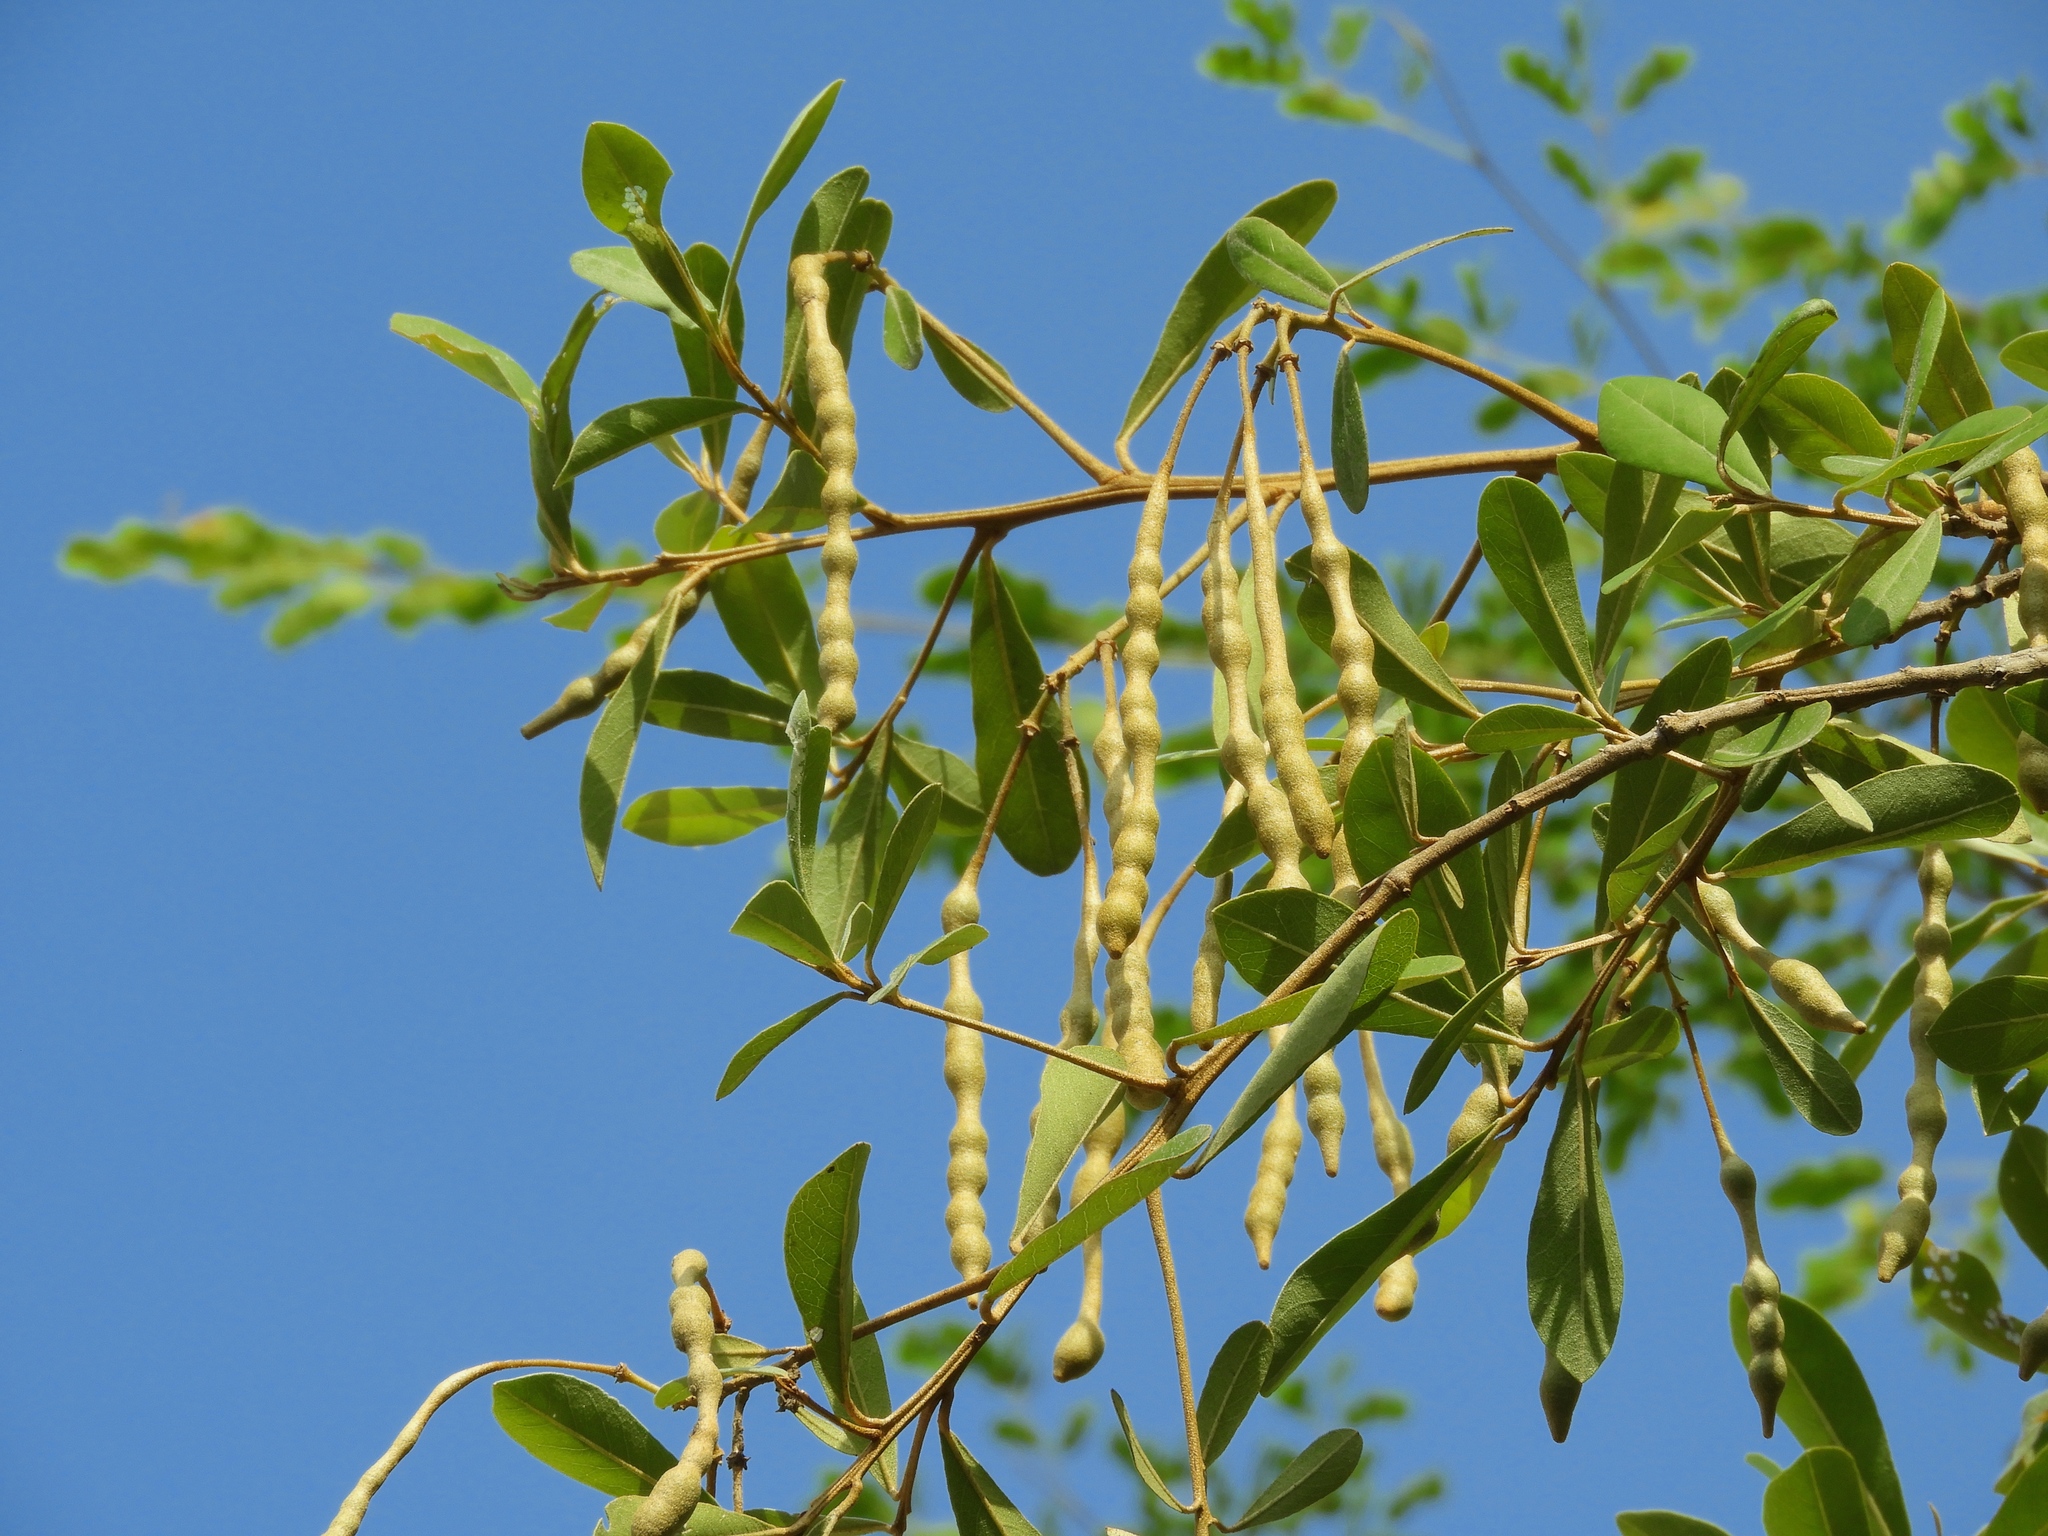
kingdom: Plantae
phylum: Tracheophyta
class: Magnoliopsida
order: Brassicales
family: Capparaceae
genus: Quadrella
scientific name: Quadrella indica
